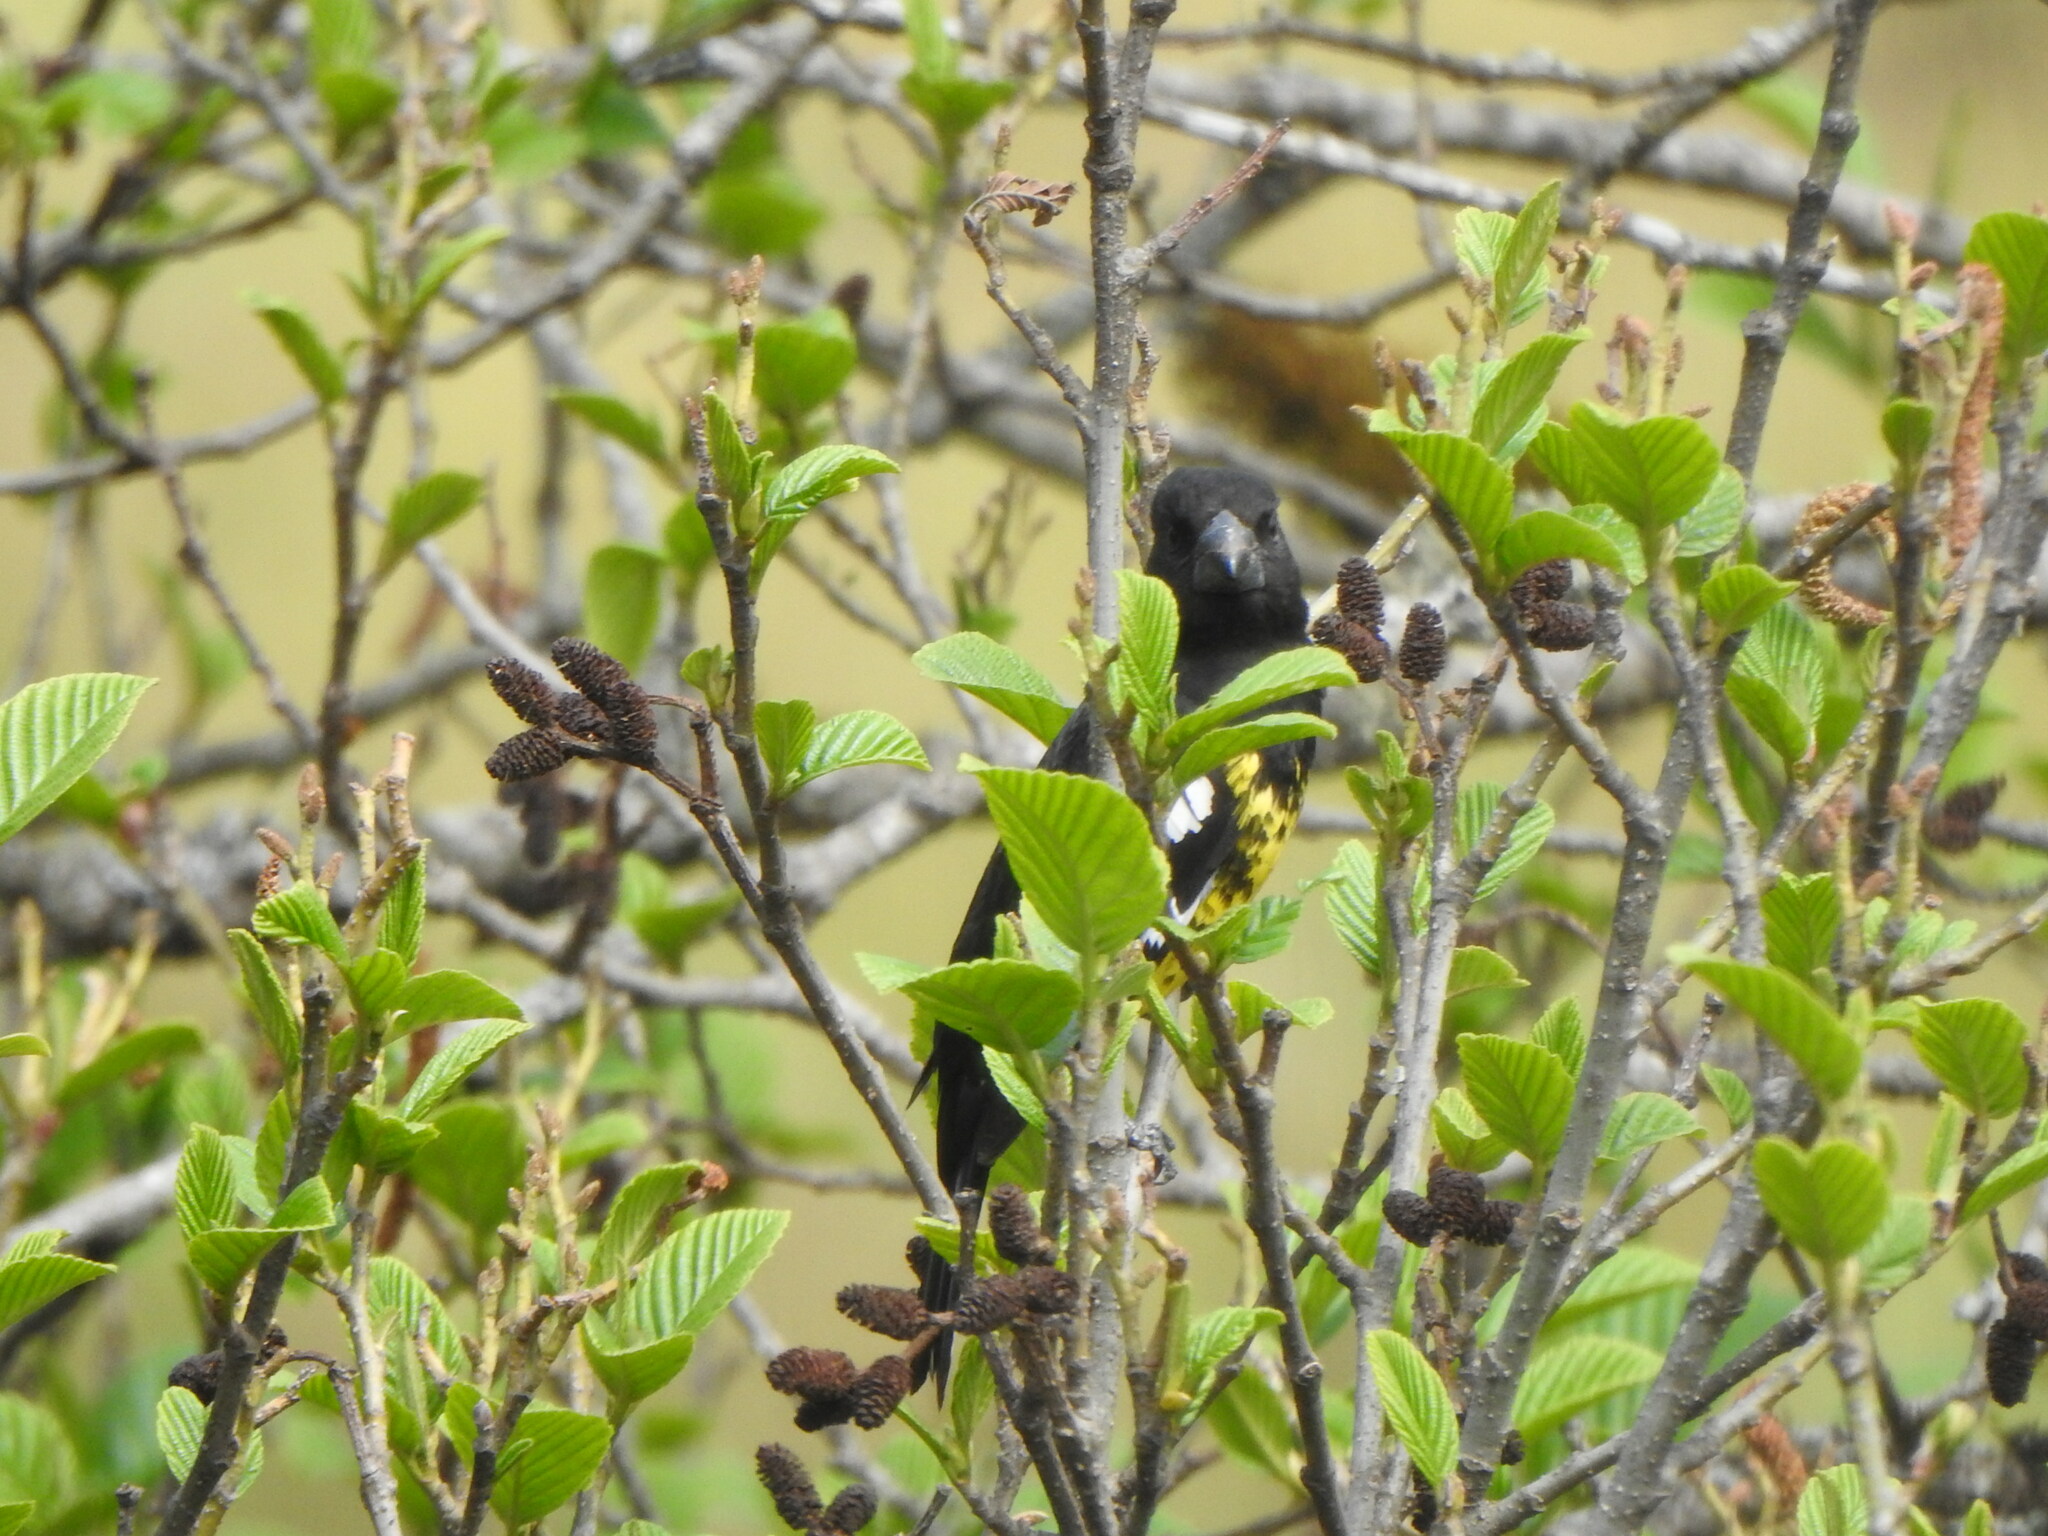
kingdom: Animalia
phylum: Chordata
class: Aves
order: Passeriformes
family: Cardinalidae
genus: Pheucticus
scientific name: Pheucticus aureoventris
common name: Black-backed grosbeak
